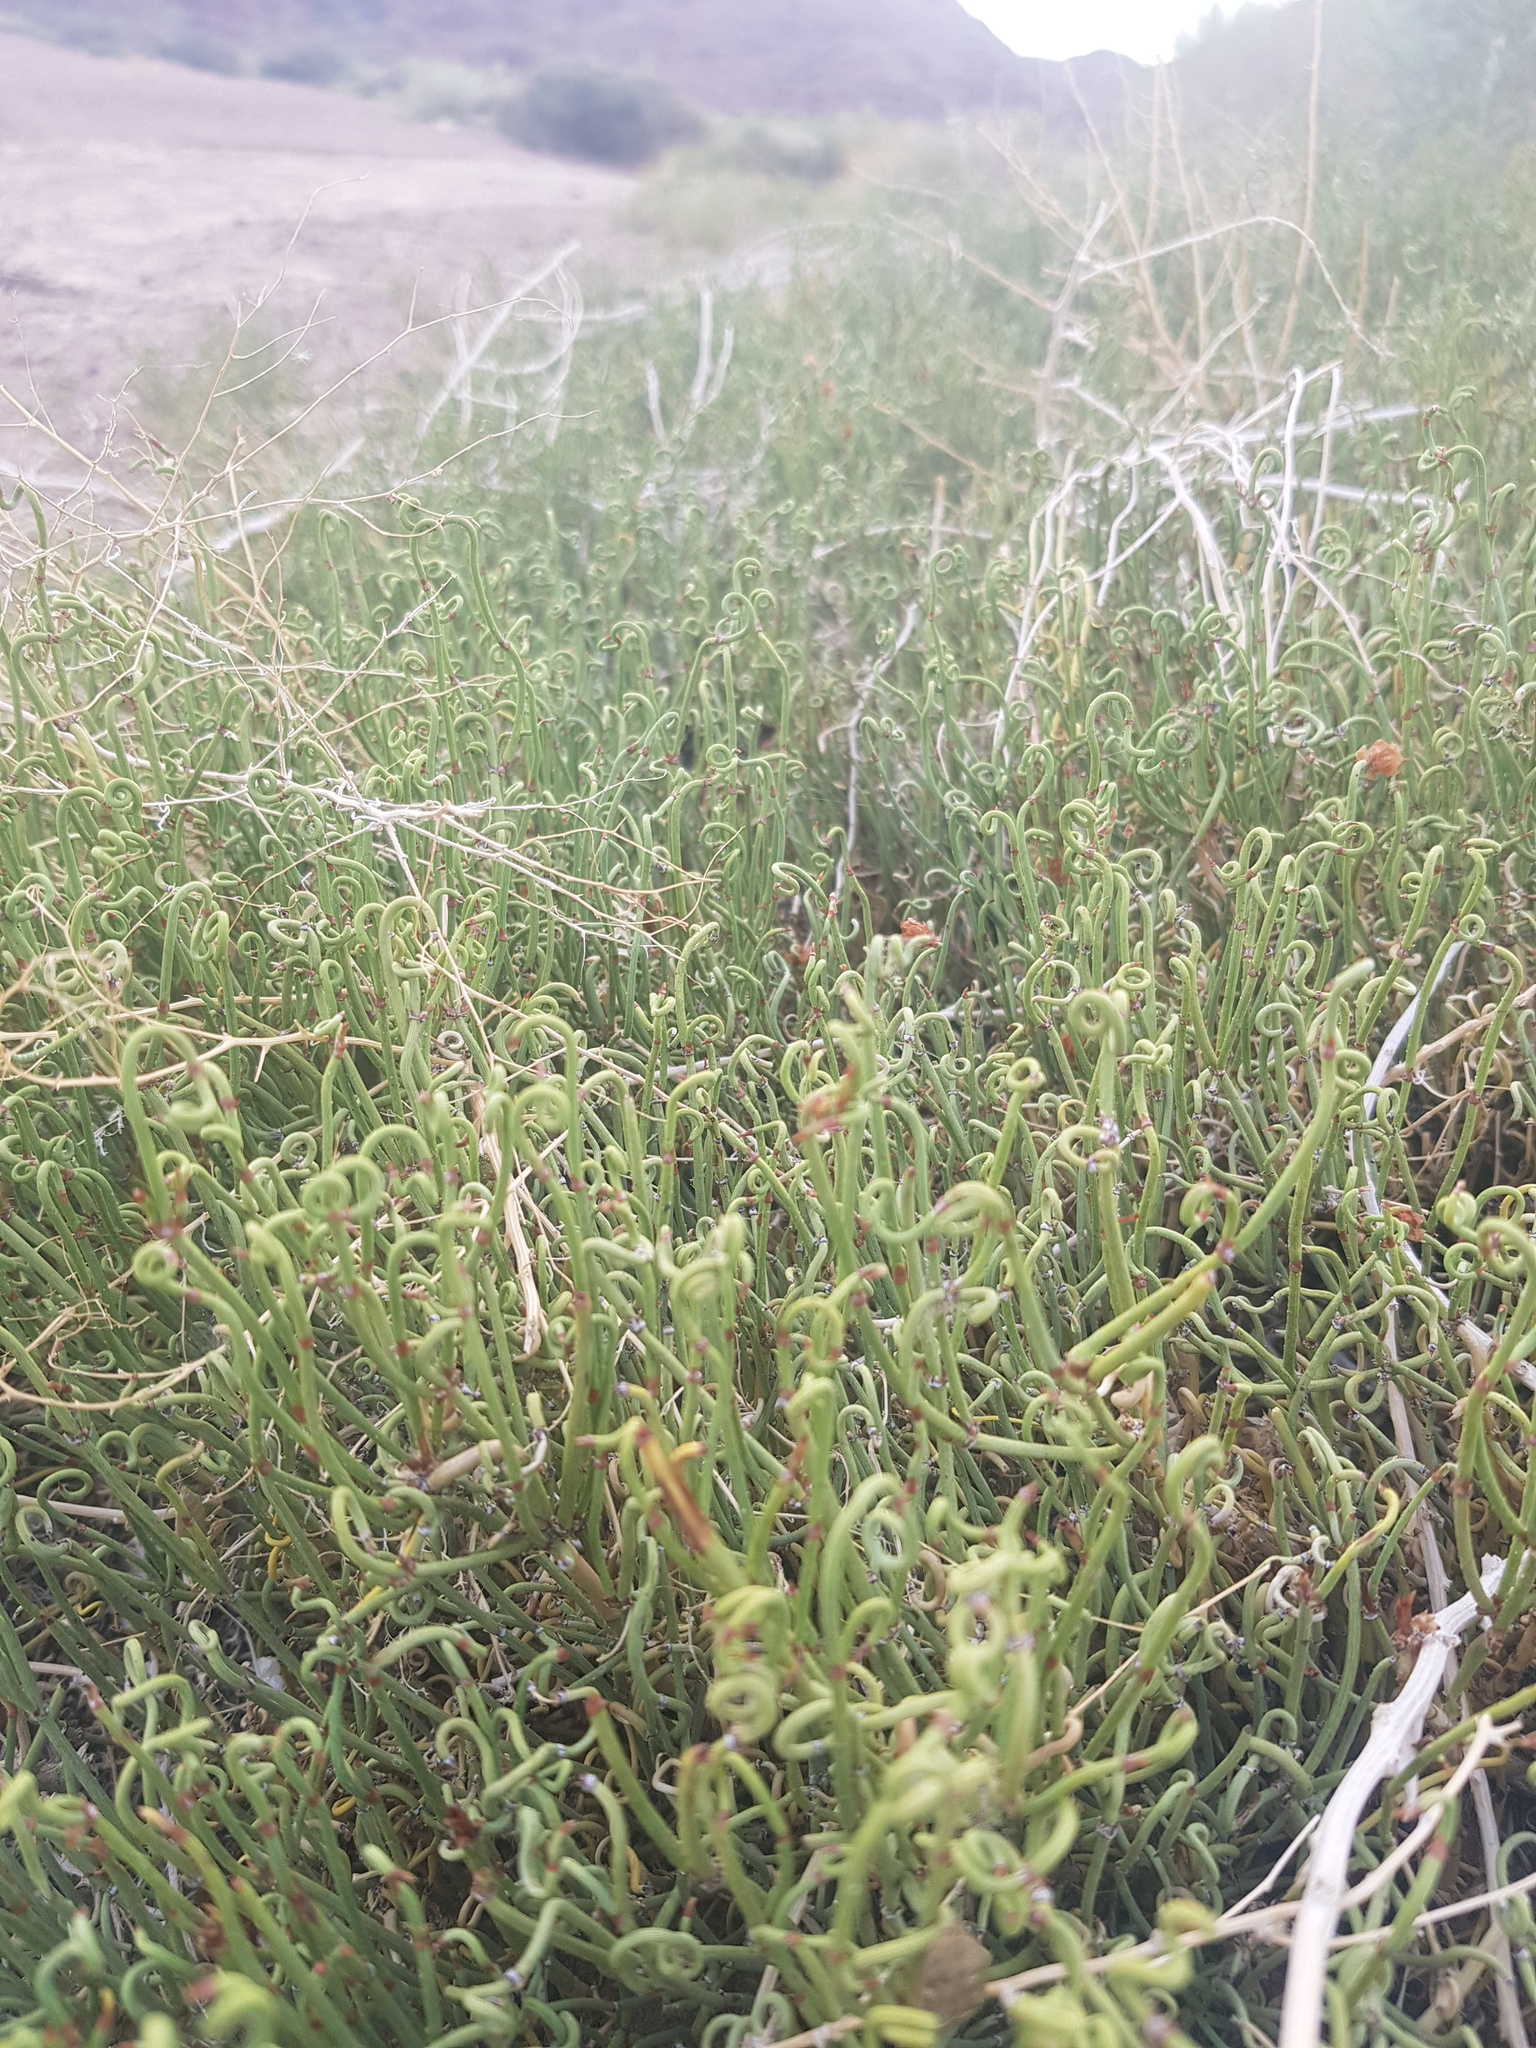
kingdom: Plantae
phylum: Tracheophyta
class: Gnetopsida
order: Ephedrales
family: Ephedraceae
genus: Ephedra
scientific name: Ephedra przewalskii
